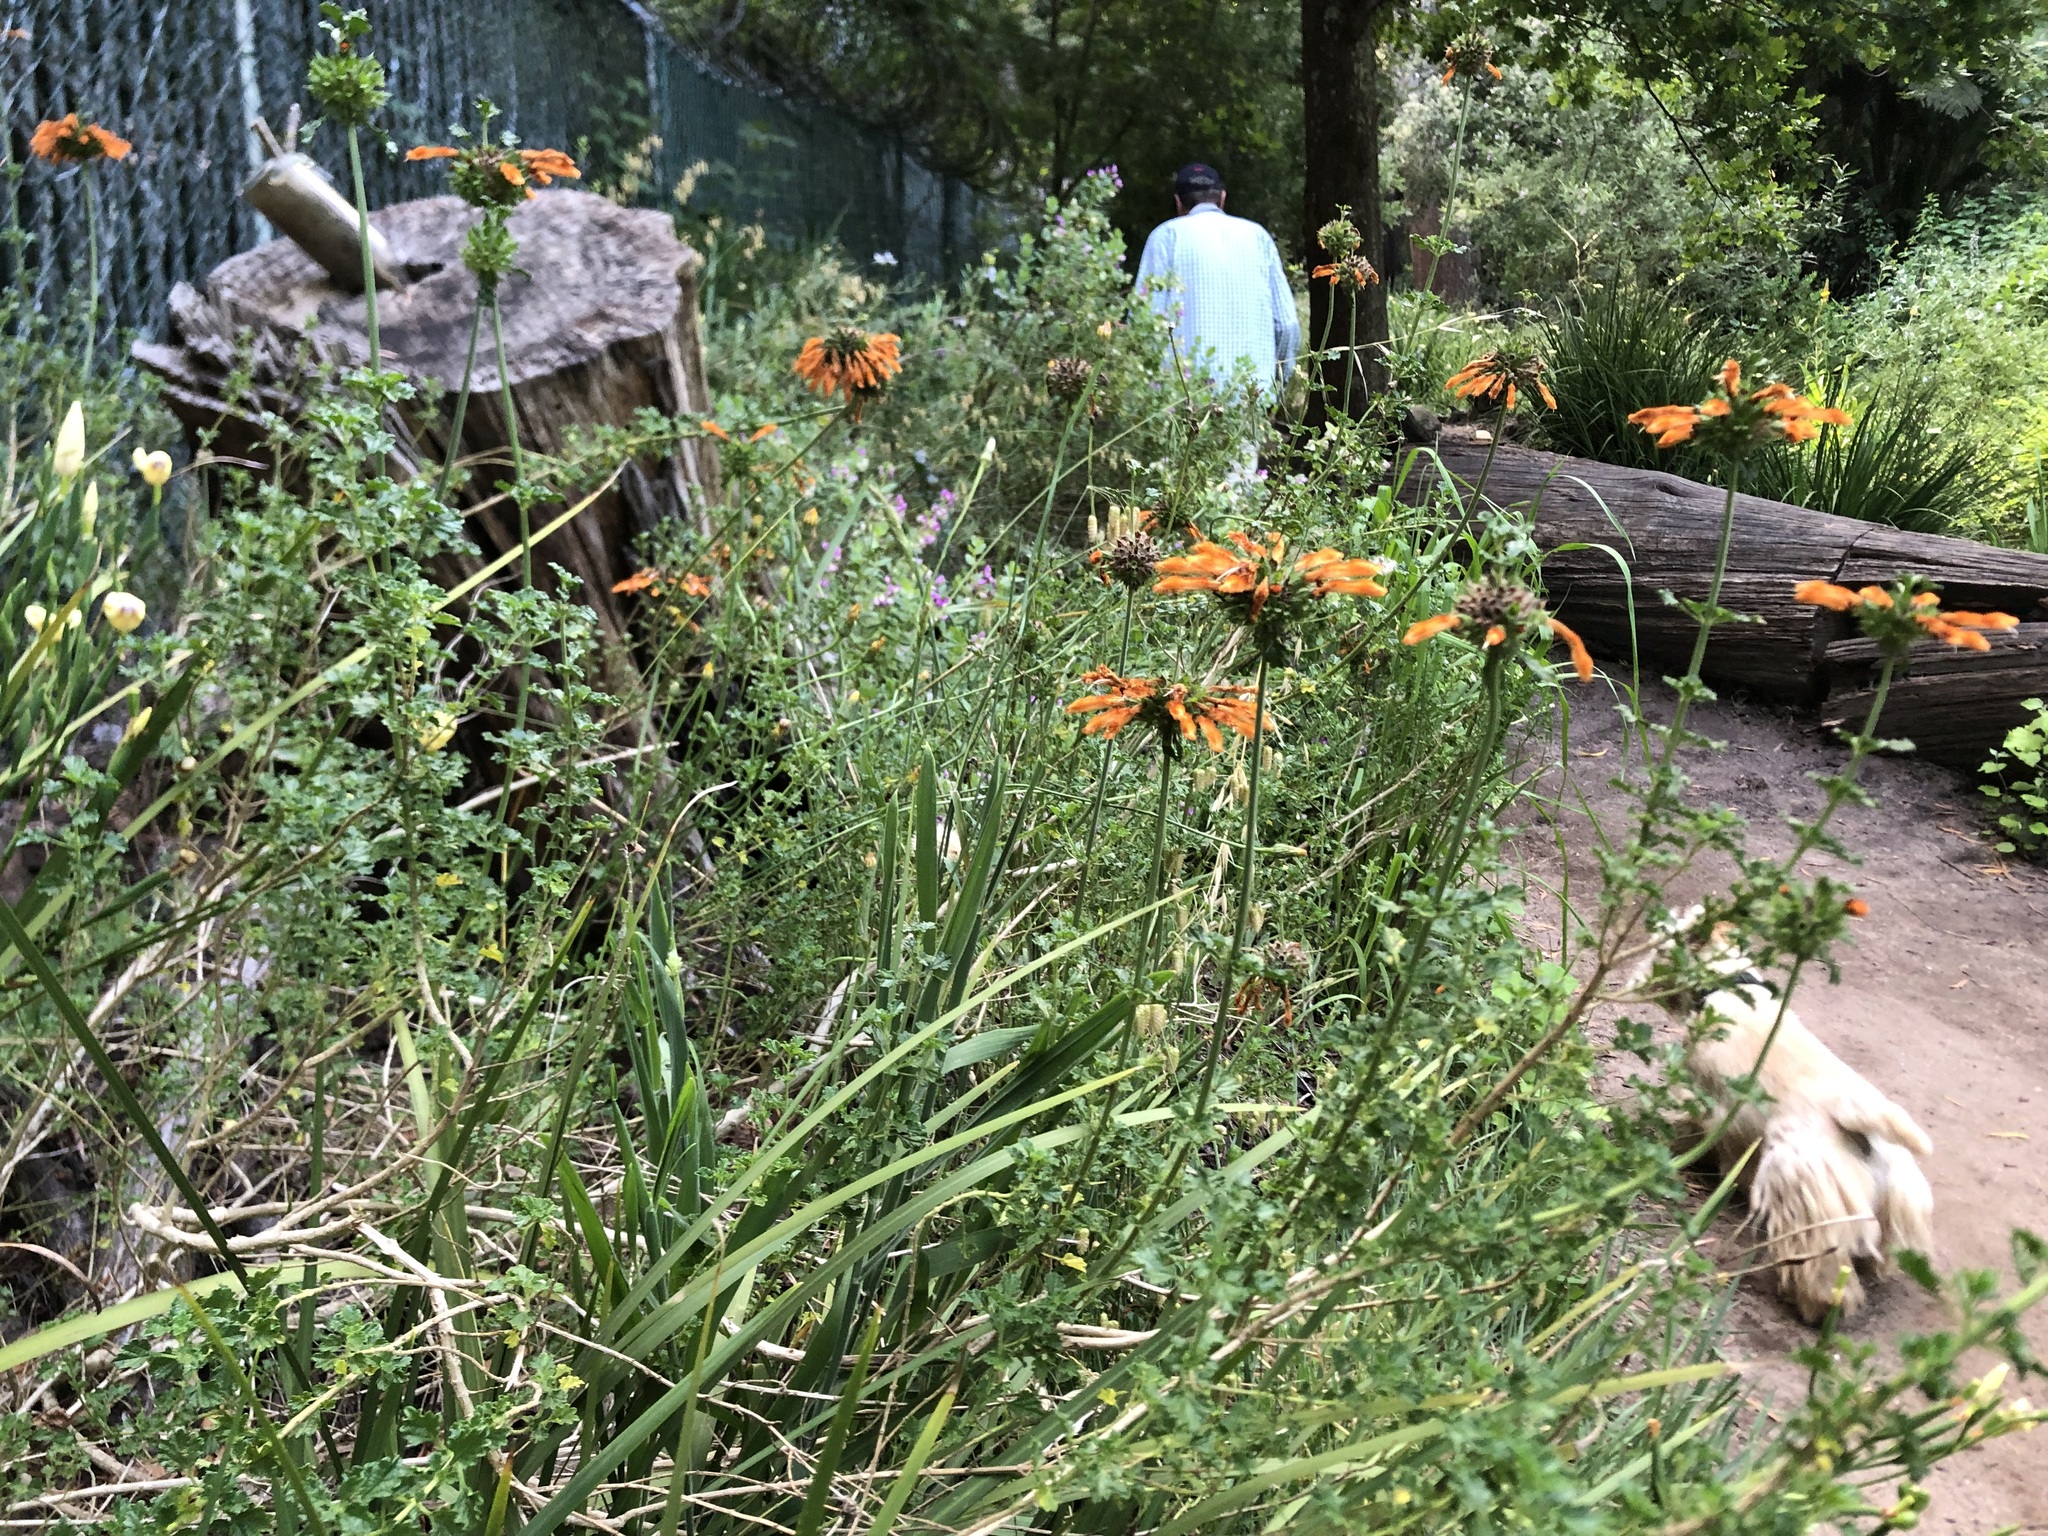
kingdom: Plantae
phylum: Tracheophyta
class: Magnoliopsida
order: Lamiales
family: Lamiaceae
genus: Leonotis
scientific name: Leonotis leonurus
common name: Lion's ear
